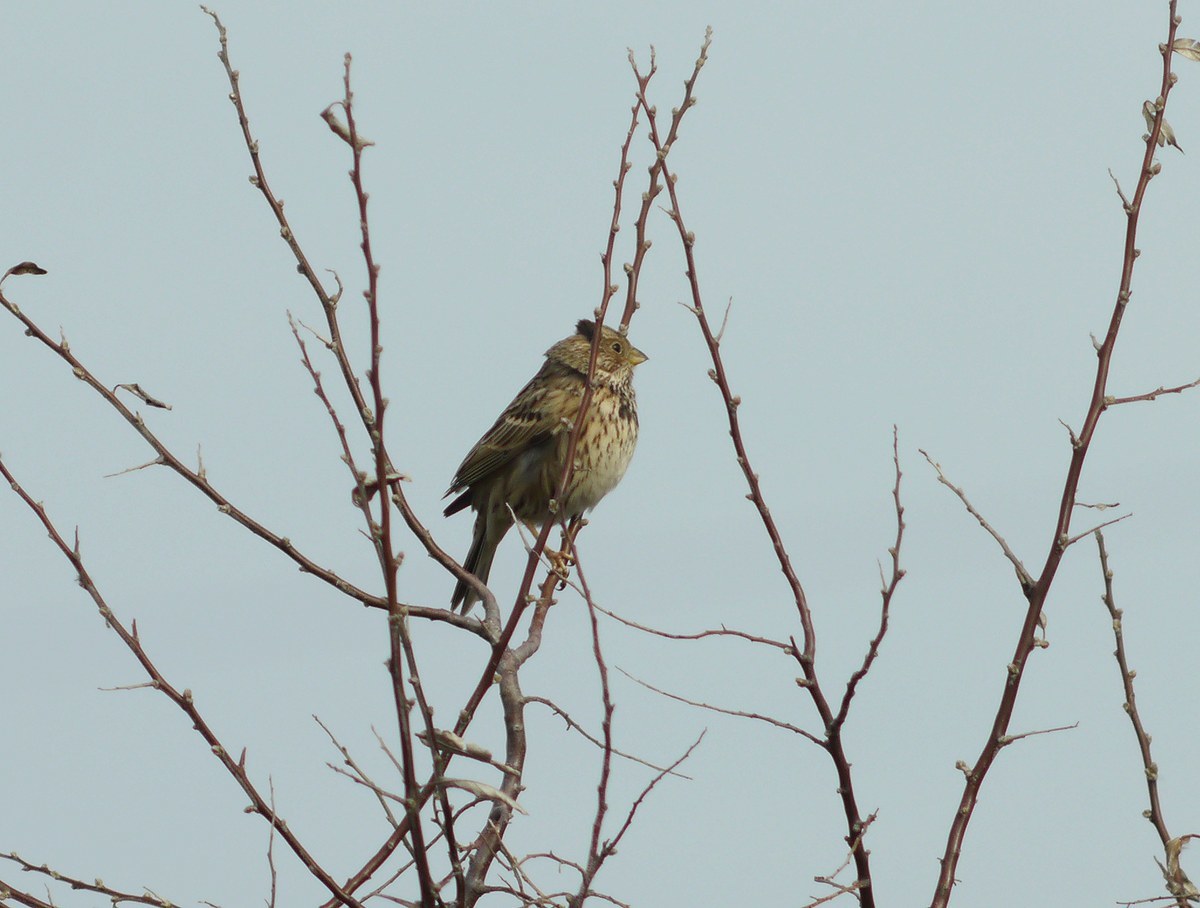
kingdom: Animalia
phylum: Chordata
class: Aves
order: Passeriformes
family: Emberizidae
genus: Emberiza
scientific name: Emberiza calandra
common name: Corn bunting
